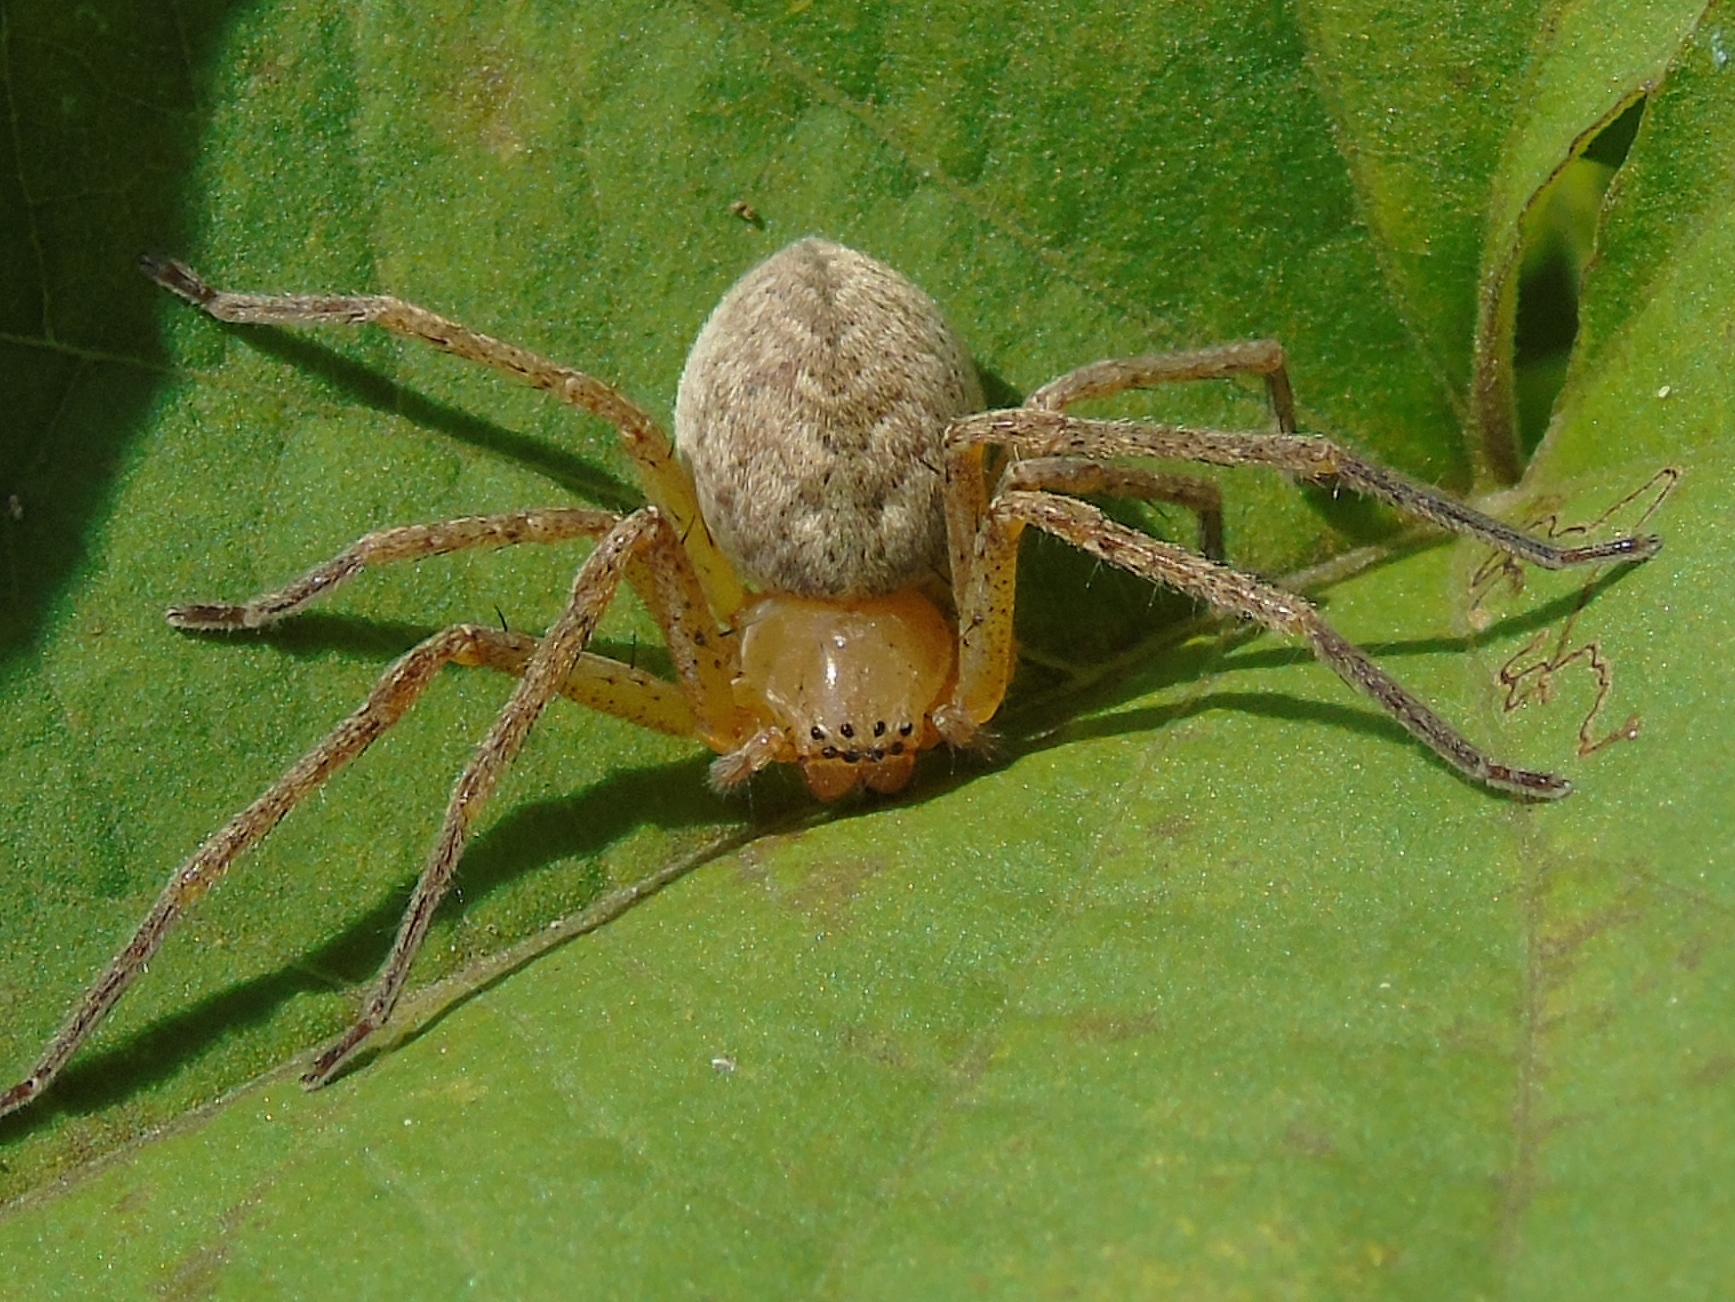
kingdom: Animalia
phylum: Arthropoda
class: Arachnida
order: Araneae
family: Sparassidae
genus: Curicaberis
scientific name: Curicaberis
